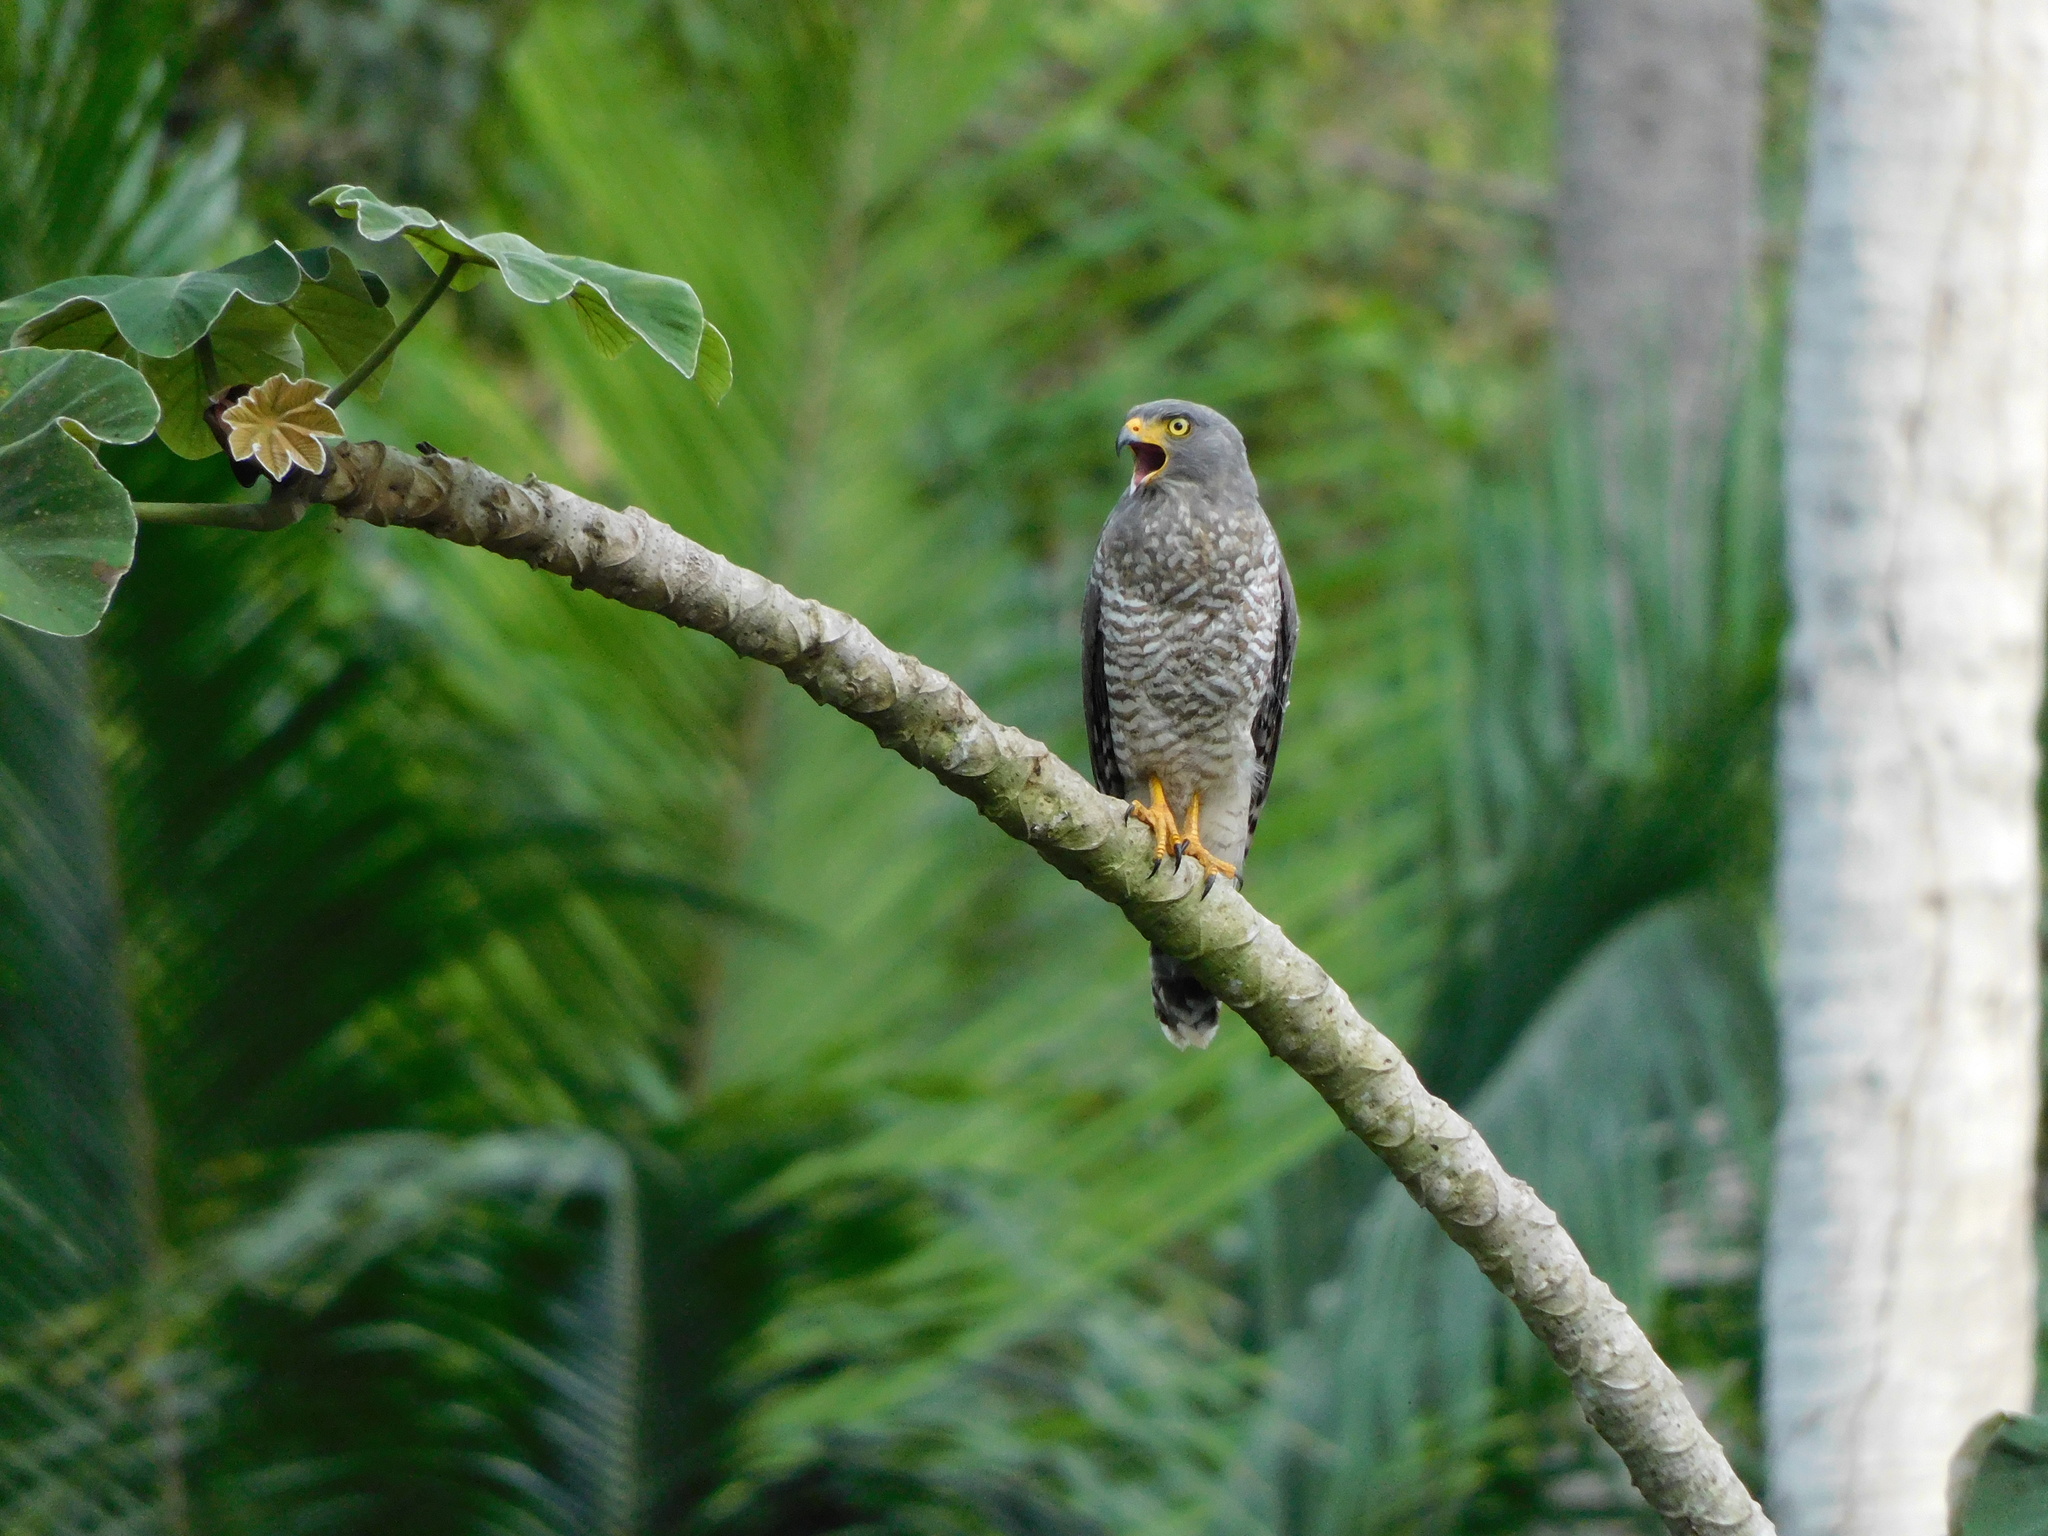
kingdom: Animalia
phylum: Chordata
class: Aves
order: Accipitriformes
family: Accipitridae
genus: Rupornis
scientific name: Rupornis magnirostris
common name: Roadside hawk
